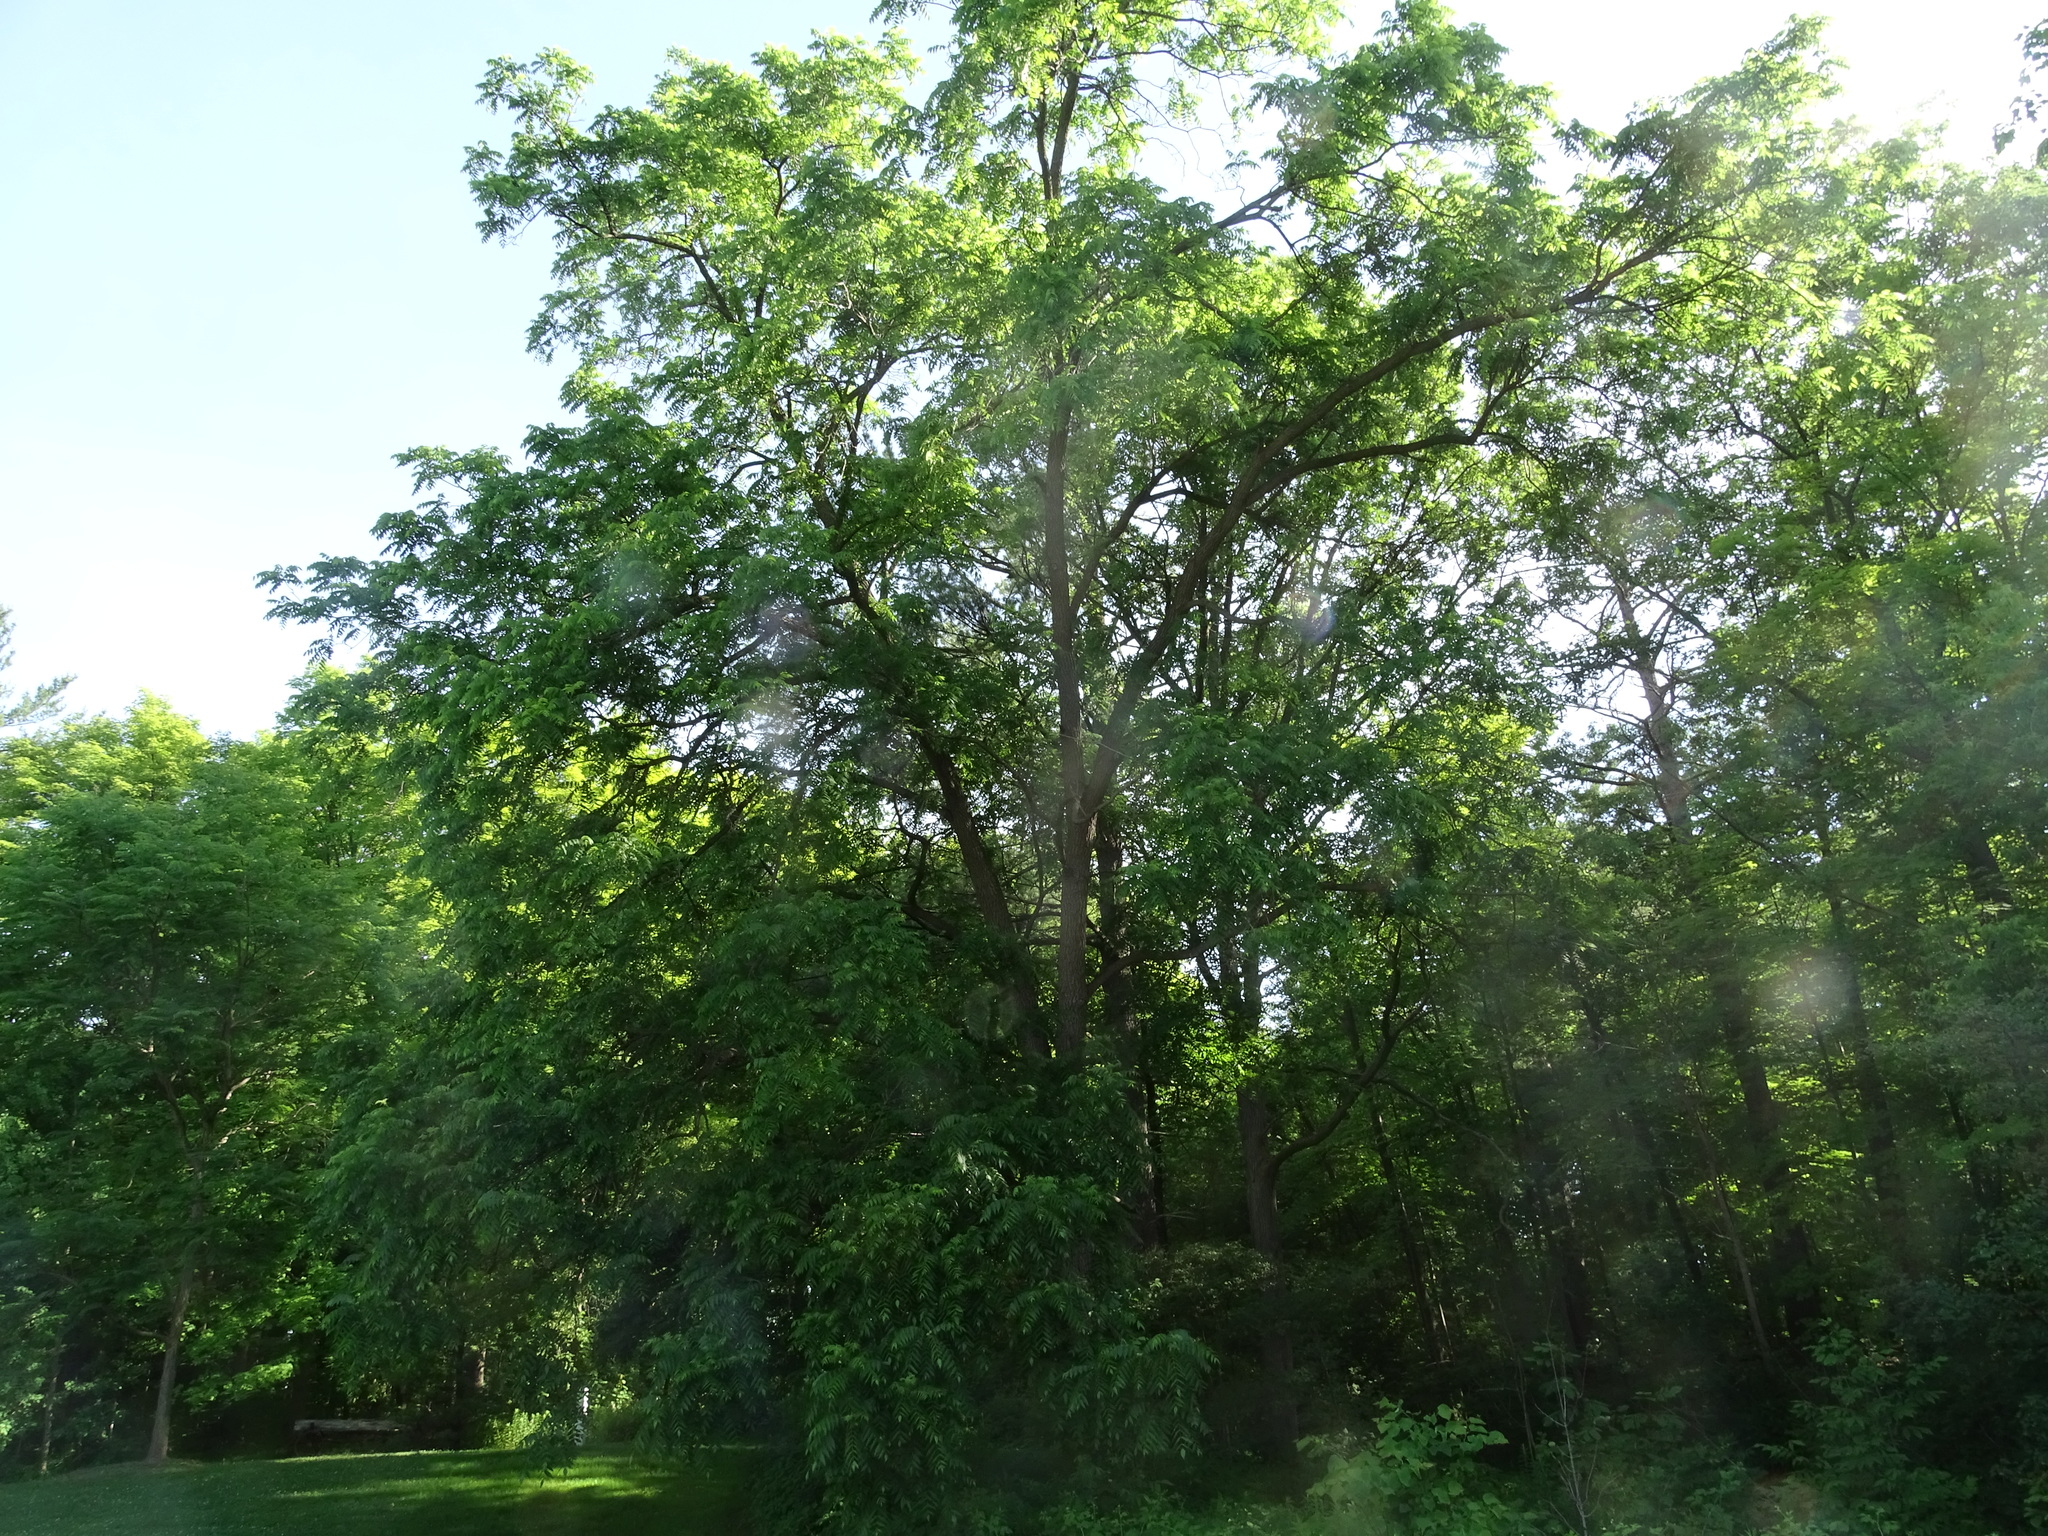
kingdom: Plantae
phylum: Tracheophyta
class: Magnoliopsida
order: Fagales
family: Juglandaceae
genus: Juglans
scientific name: Juglans nigra
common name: Black walnut
